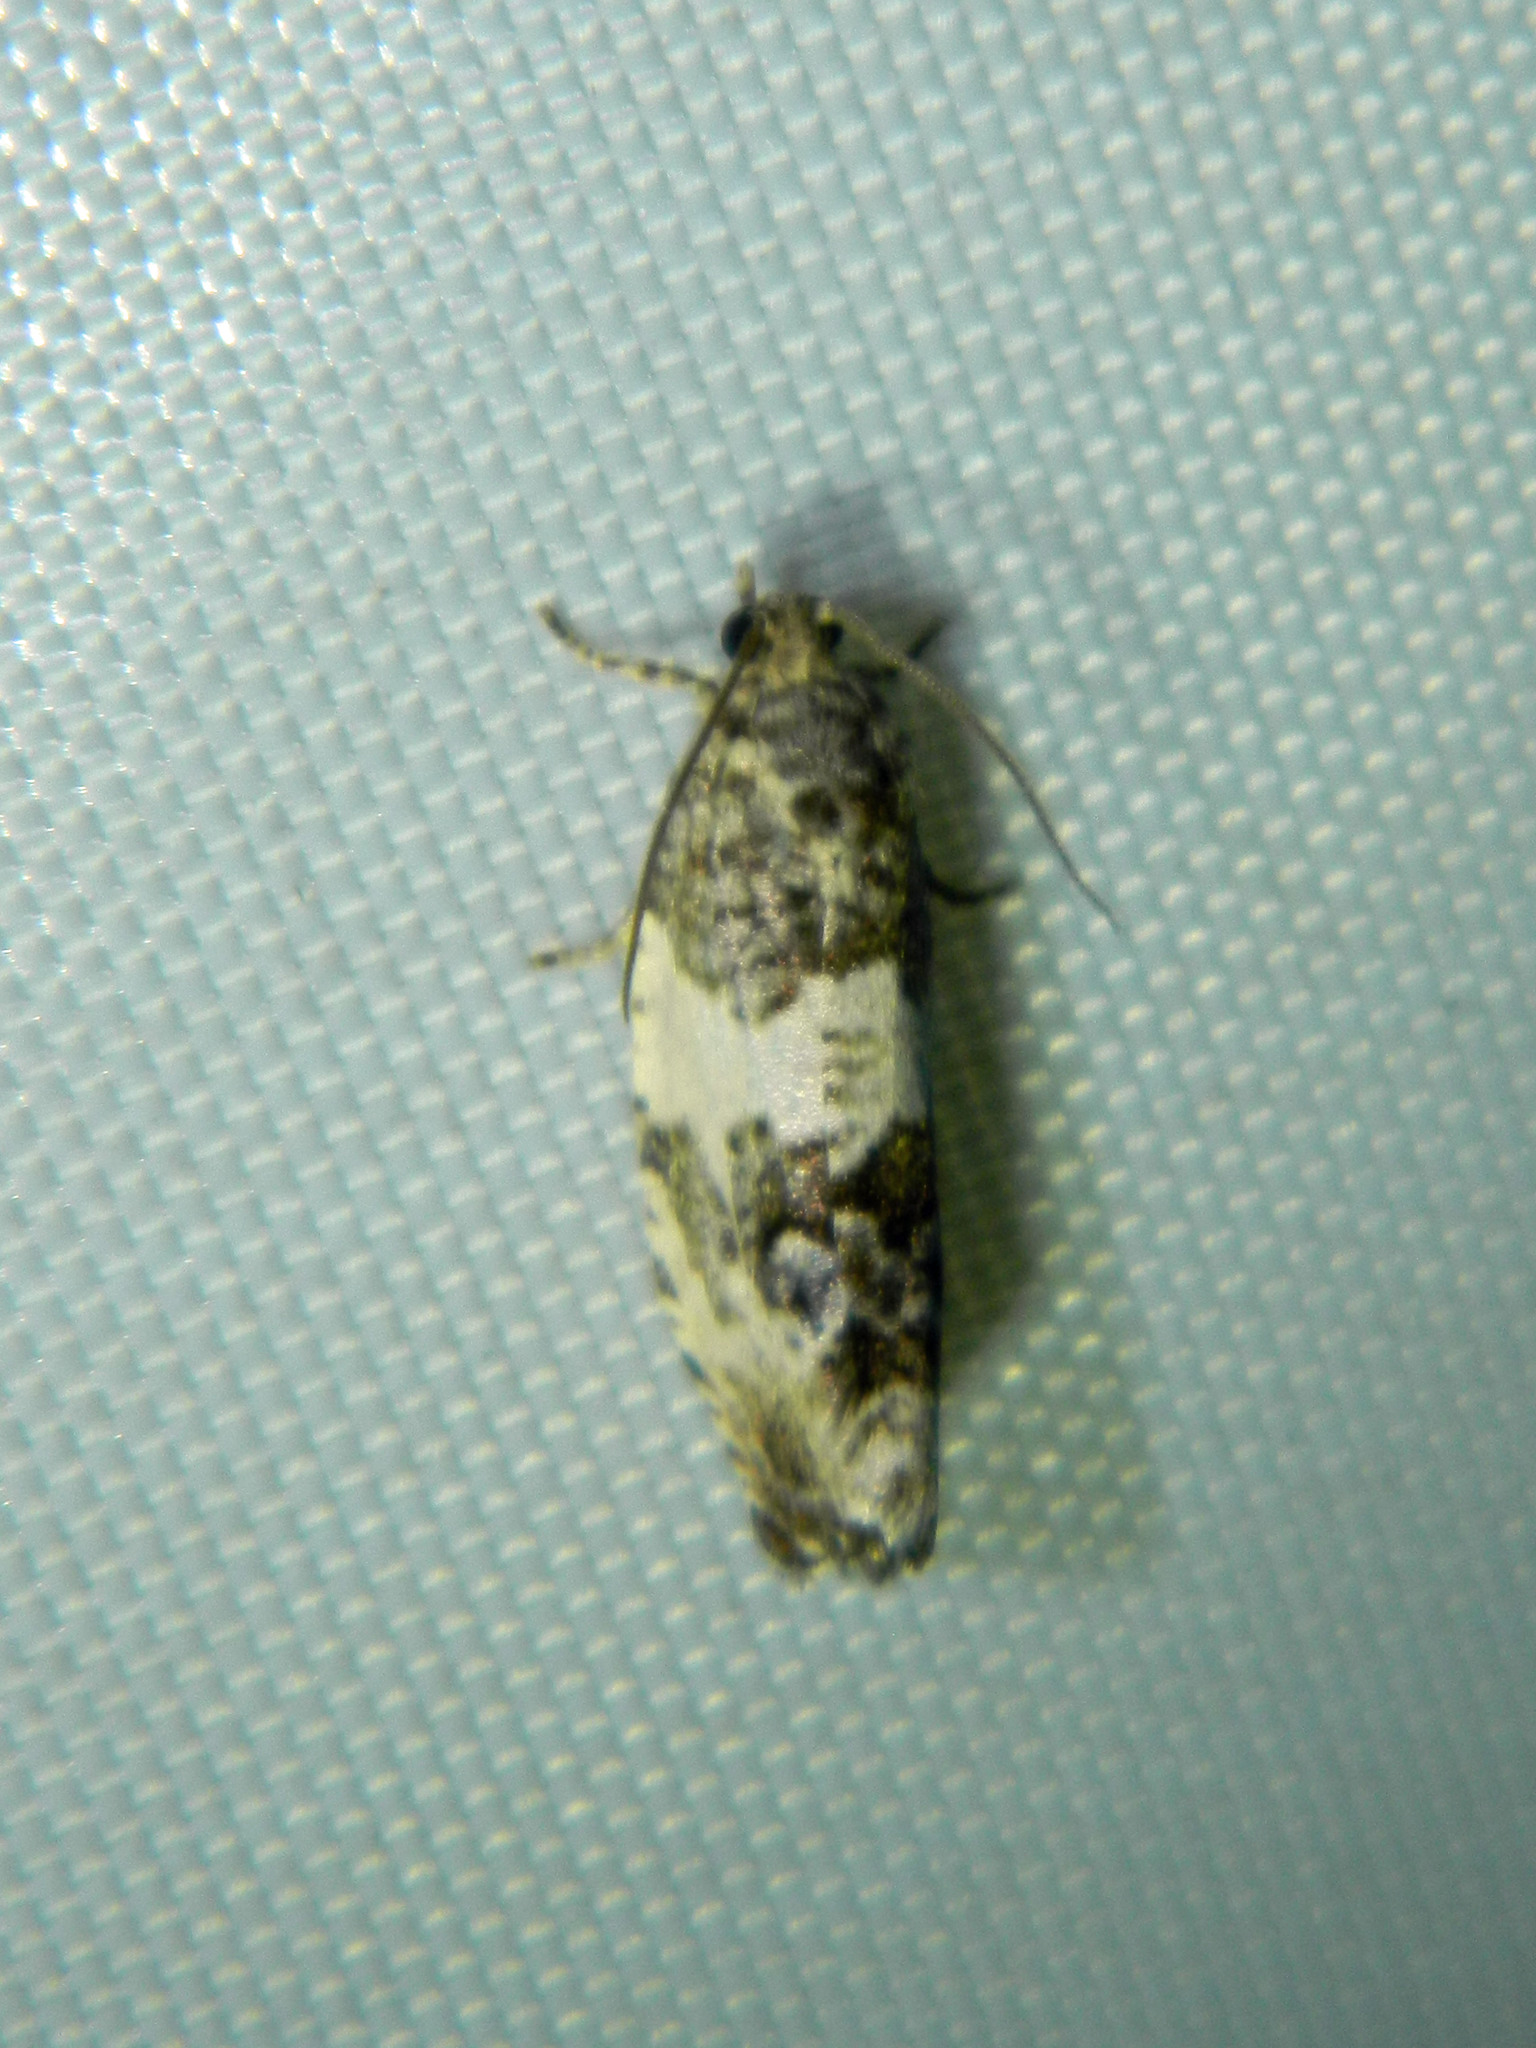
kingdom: Animalia
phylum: Arthropoda
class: Insecta
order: Lepidoptera
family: Tortricidae
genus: Pseudosciaphila
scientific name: Pseudosciaphila duplex
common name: Poplar leafroller moth
